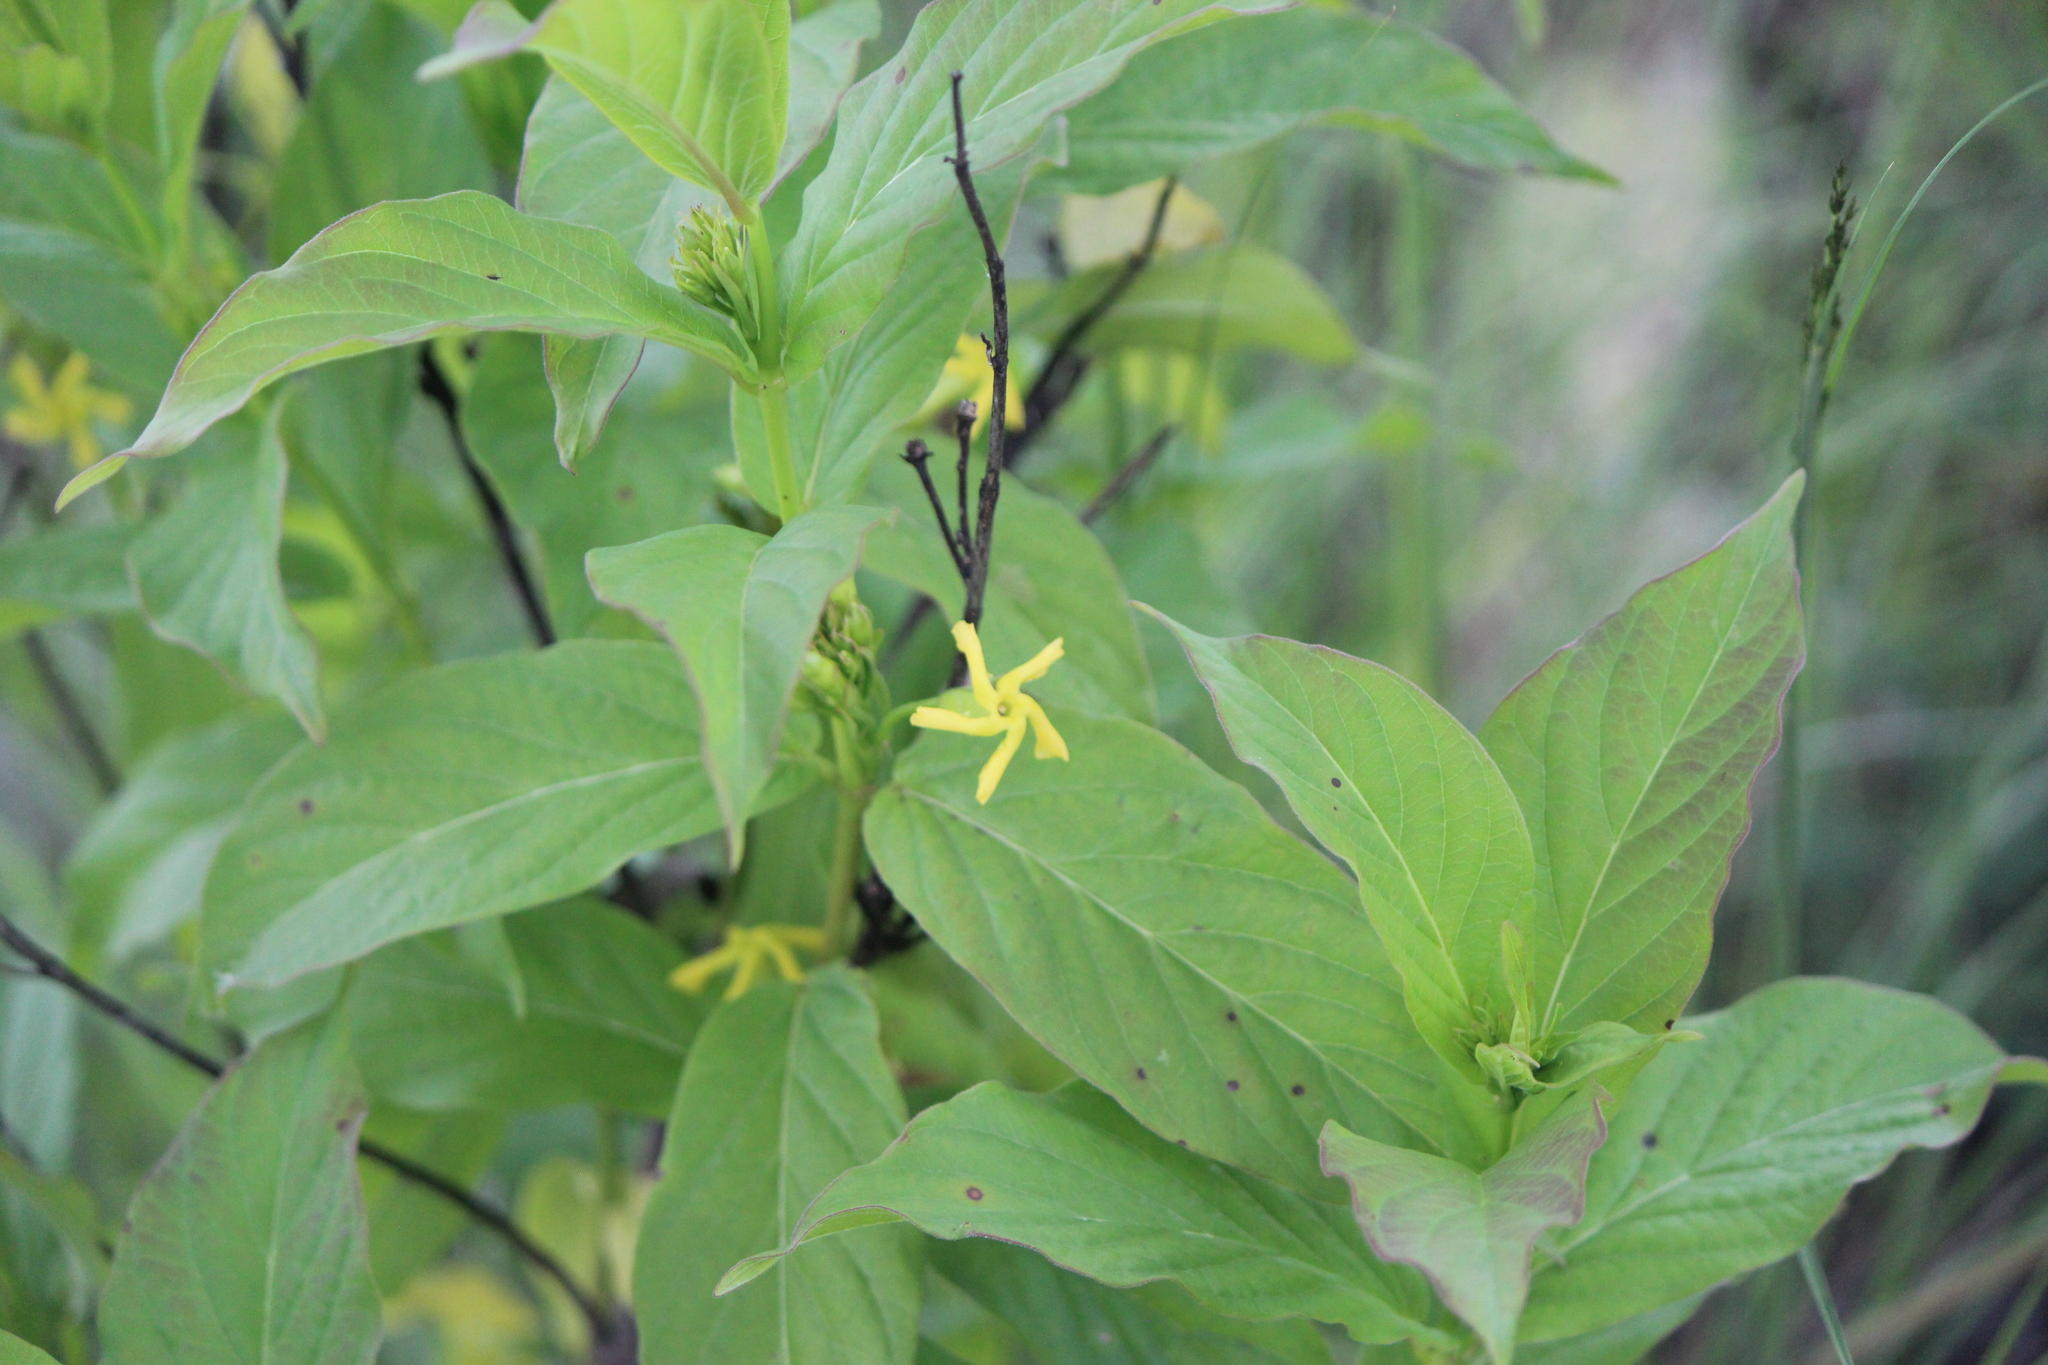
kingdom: Plantae
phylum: Tracheophyta
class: Magnoliopsida
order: Gentianales
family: Apocynaceae
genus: Mandevilla
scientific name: Mandevilla foliosa
